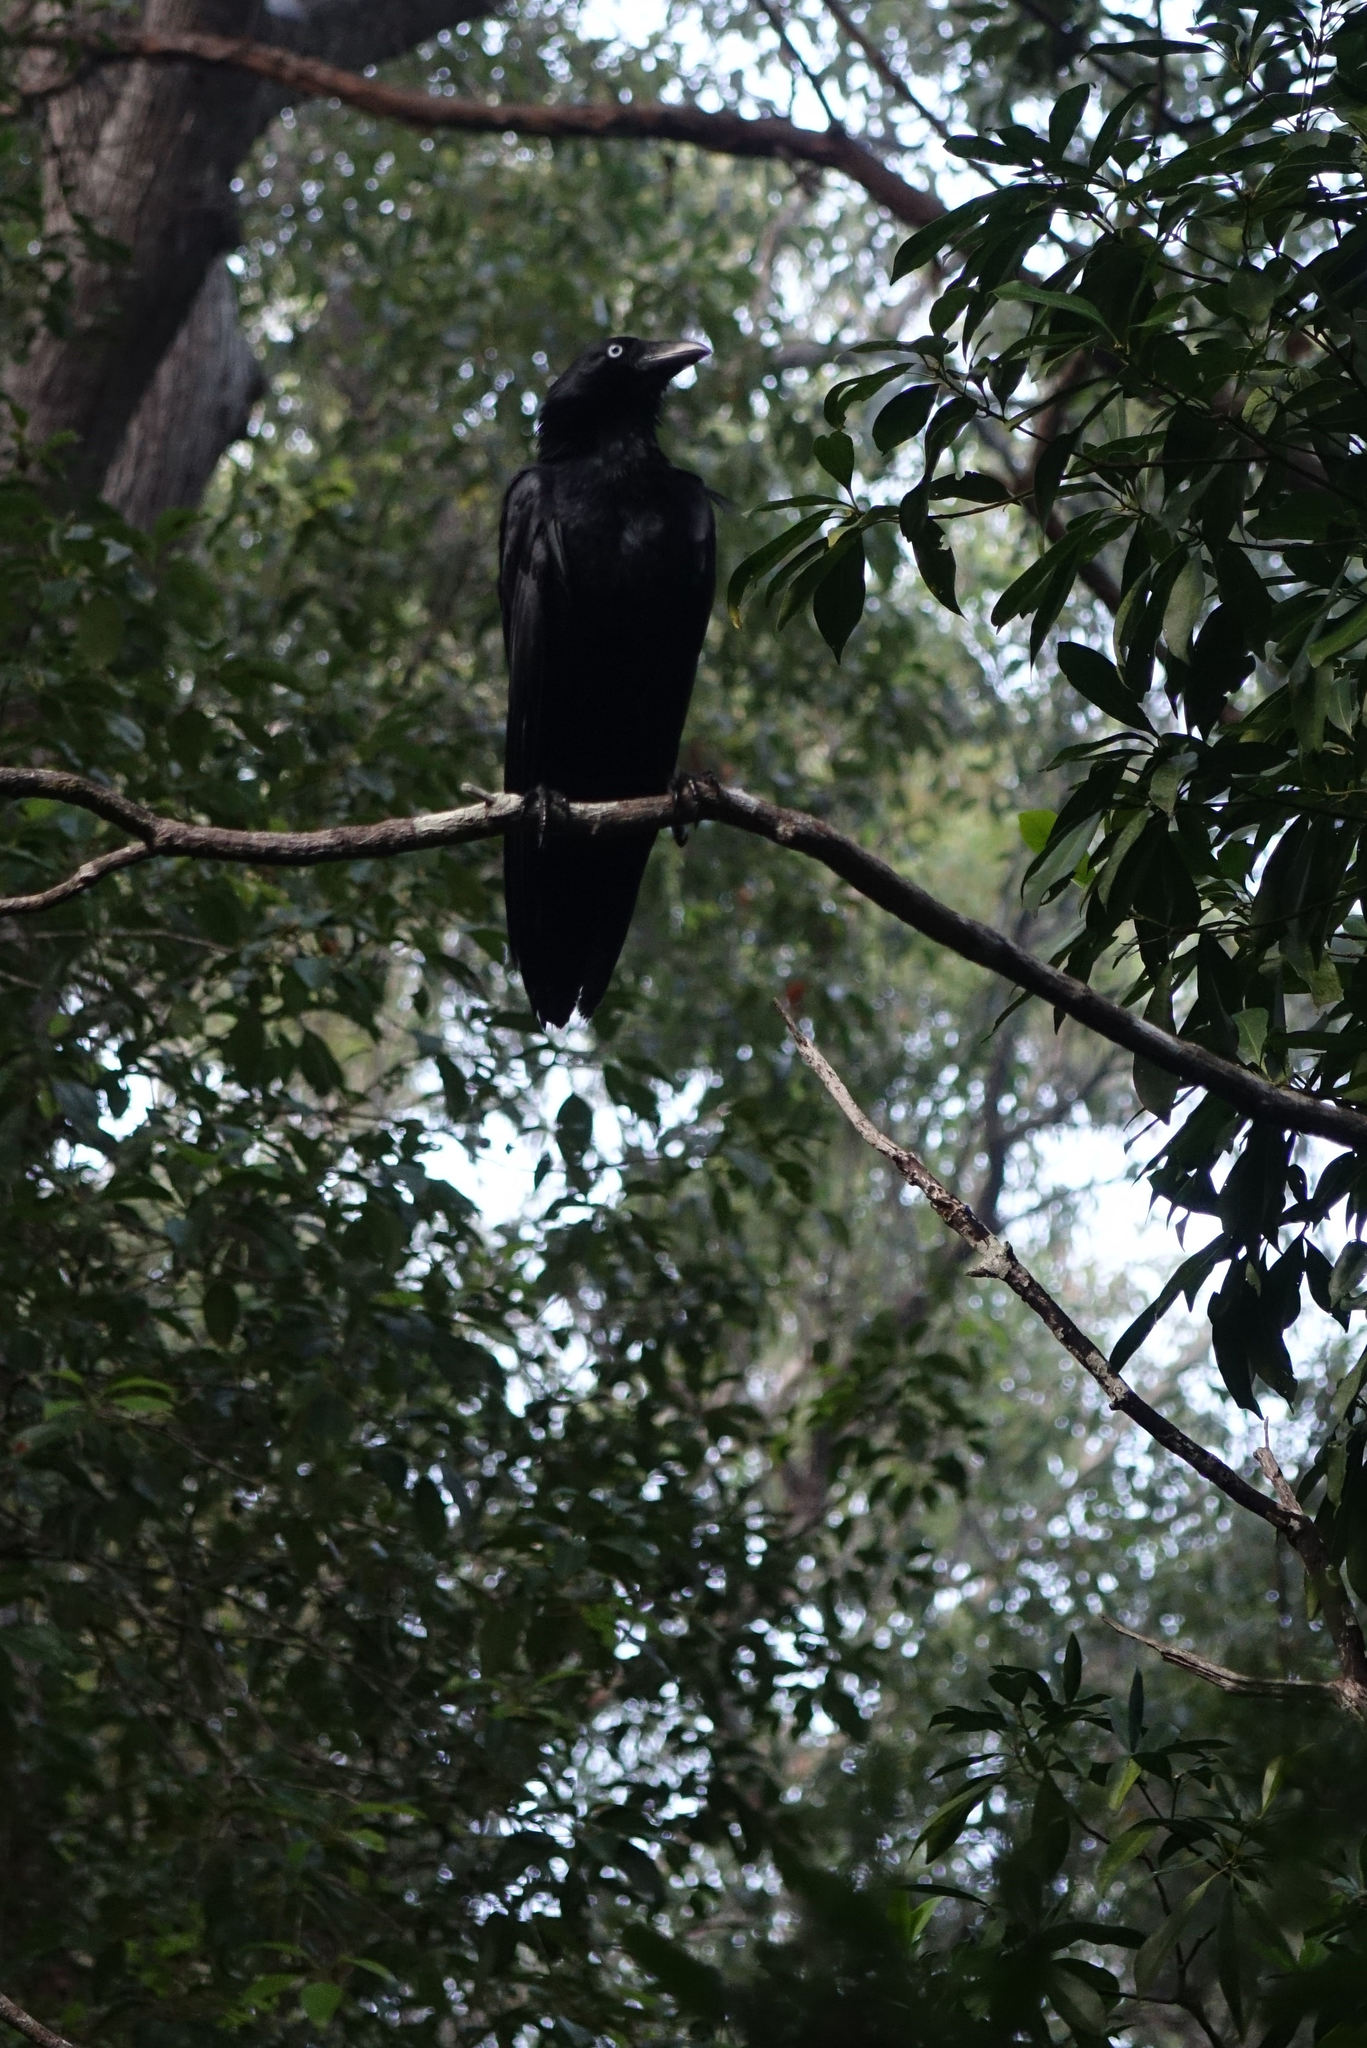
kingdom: Animalia
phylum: Chordata
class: Aves
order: Passeriformes
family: Corvidae
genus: Corvus
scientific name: Corvus orru
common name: Torresian crow
